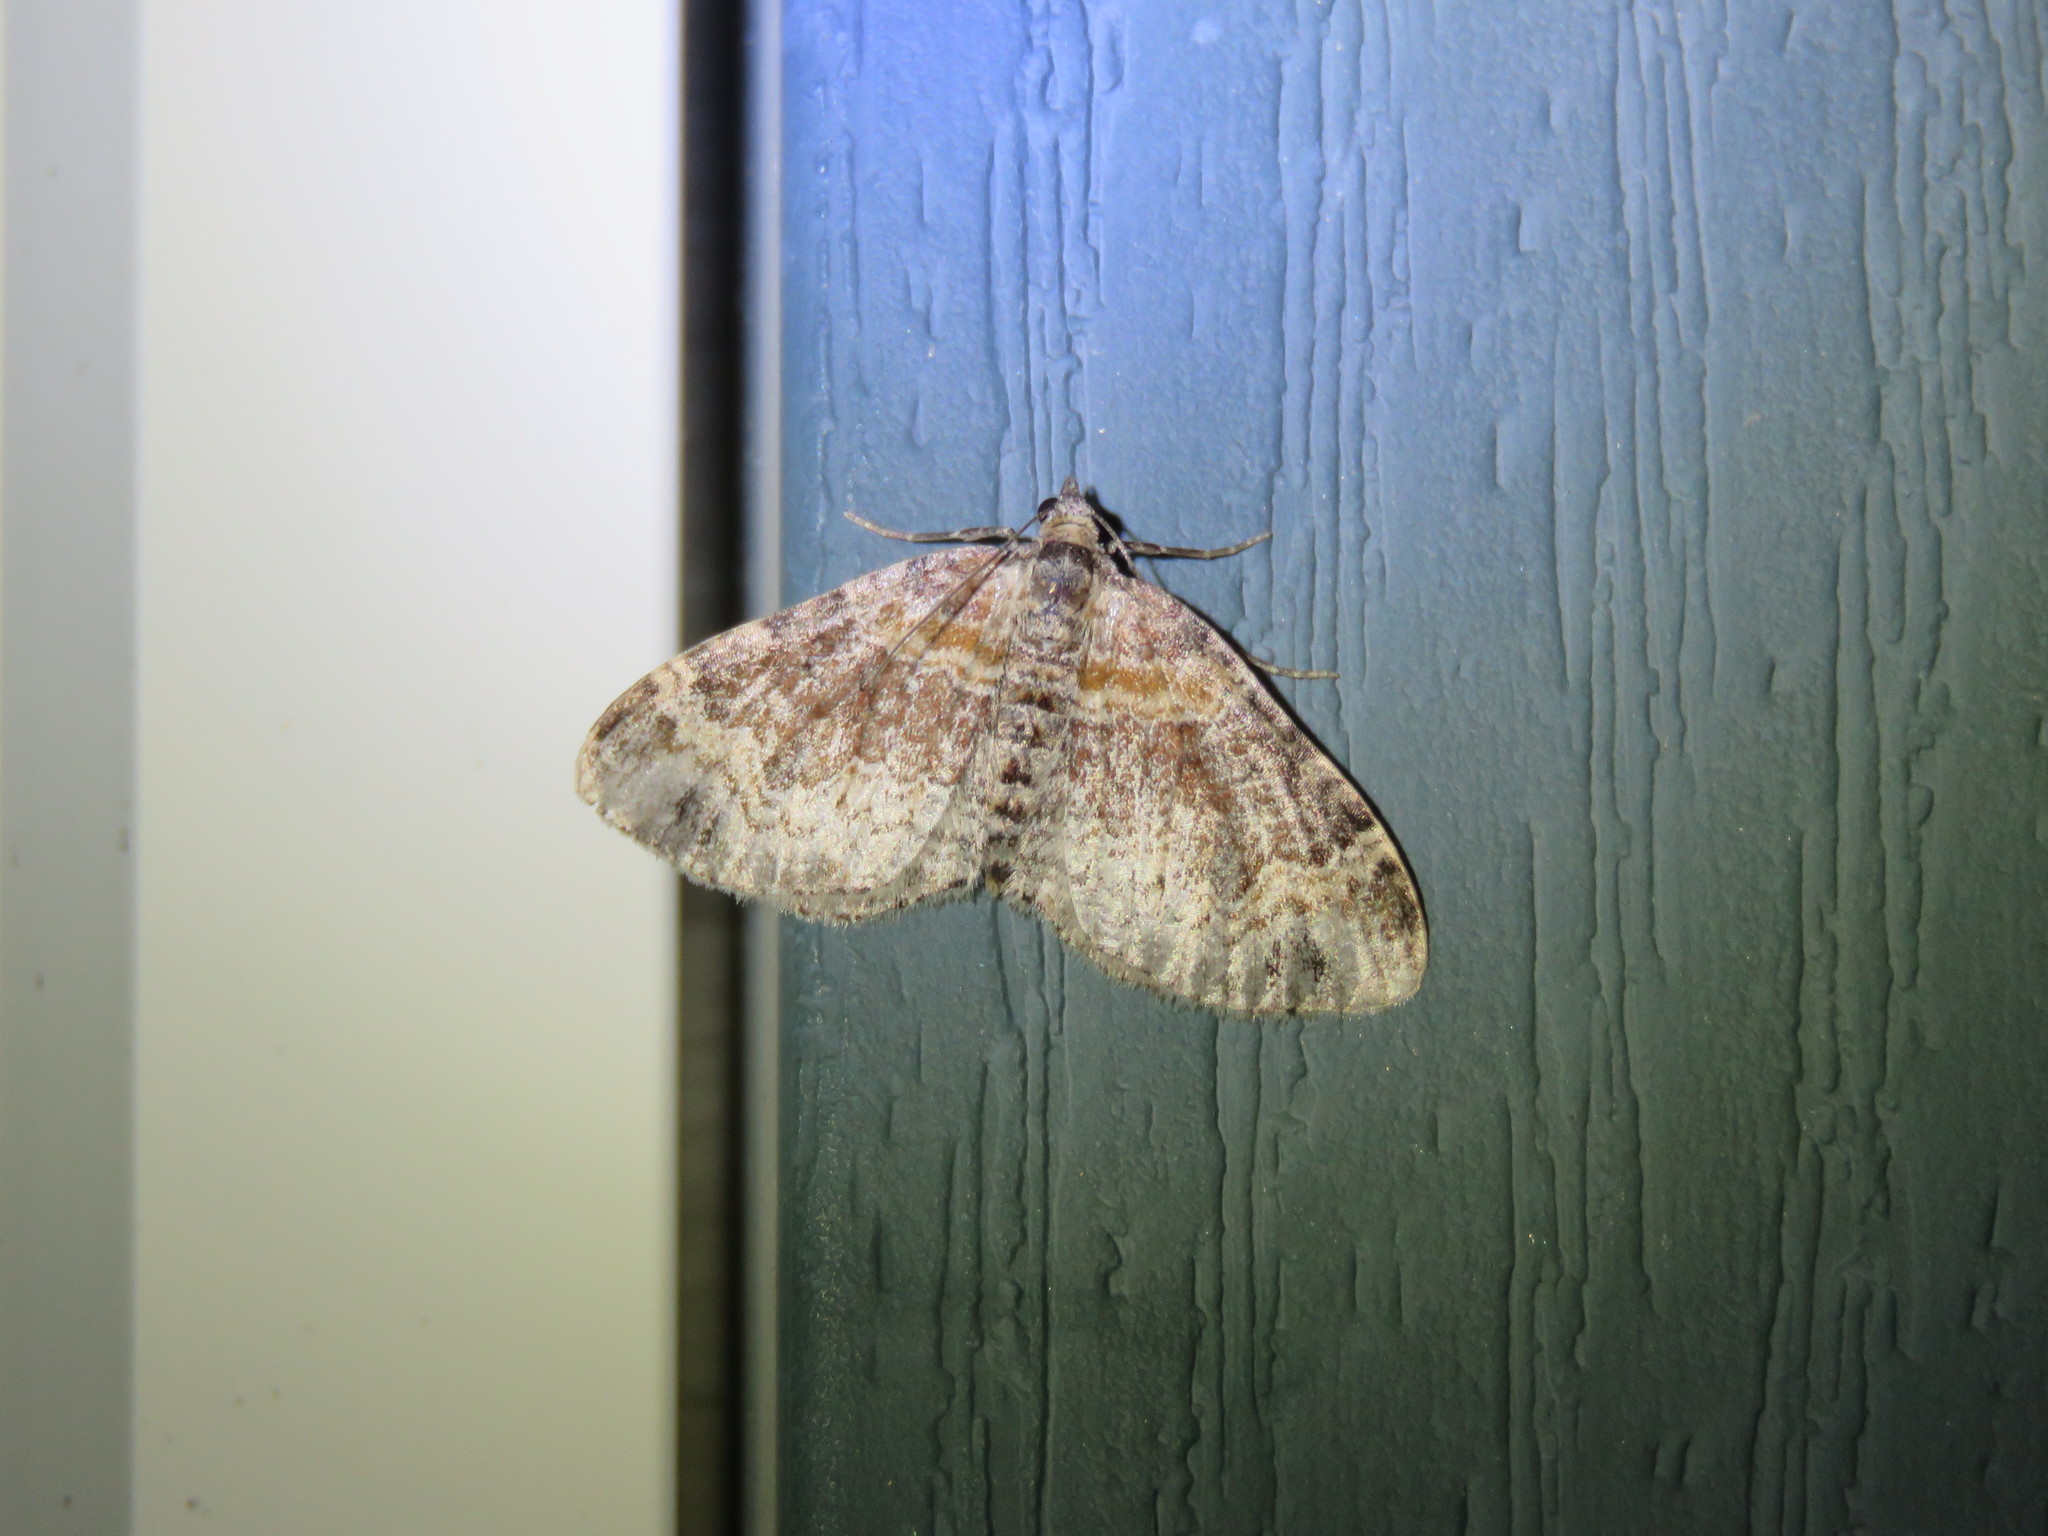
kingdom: Animalia
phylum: Arthropoda
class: Insecta
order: Lepidoptera
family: Geometridae
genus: Xanthorhoe
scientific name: Xanthorhoe ferrugata
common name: Dark-barred twin-spot carpet
